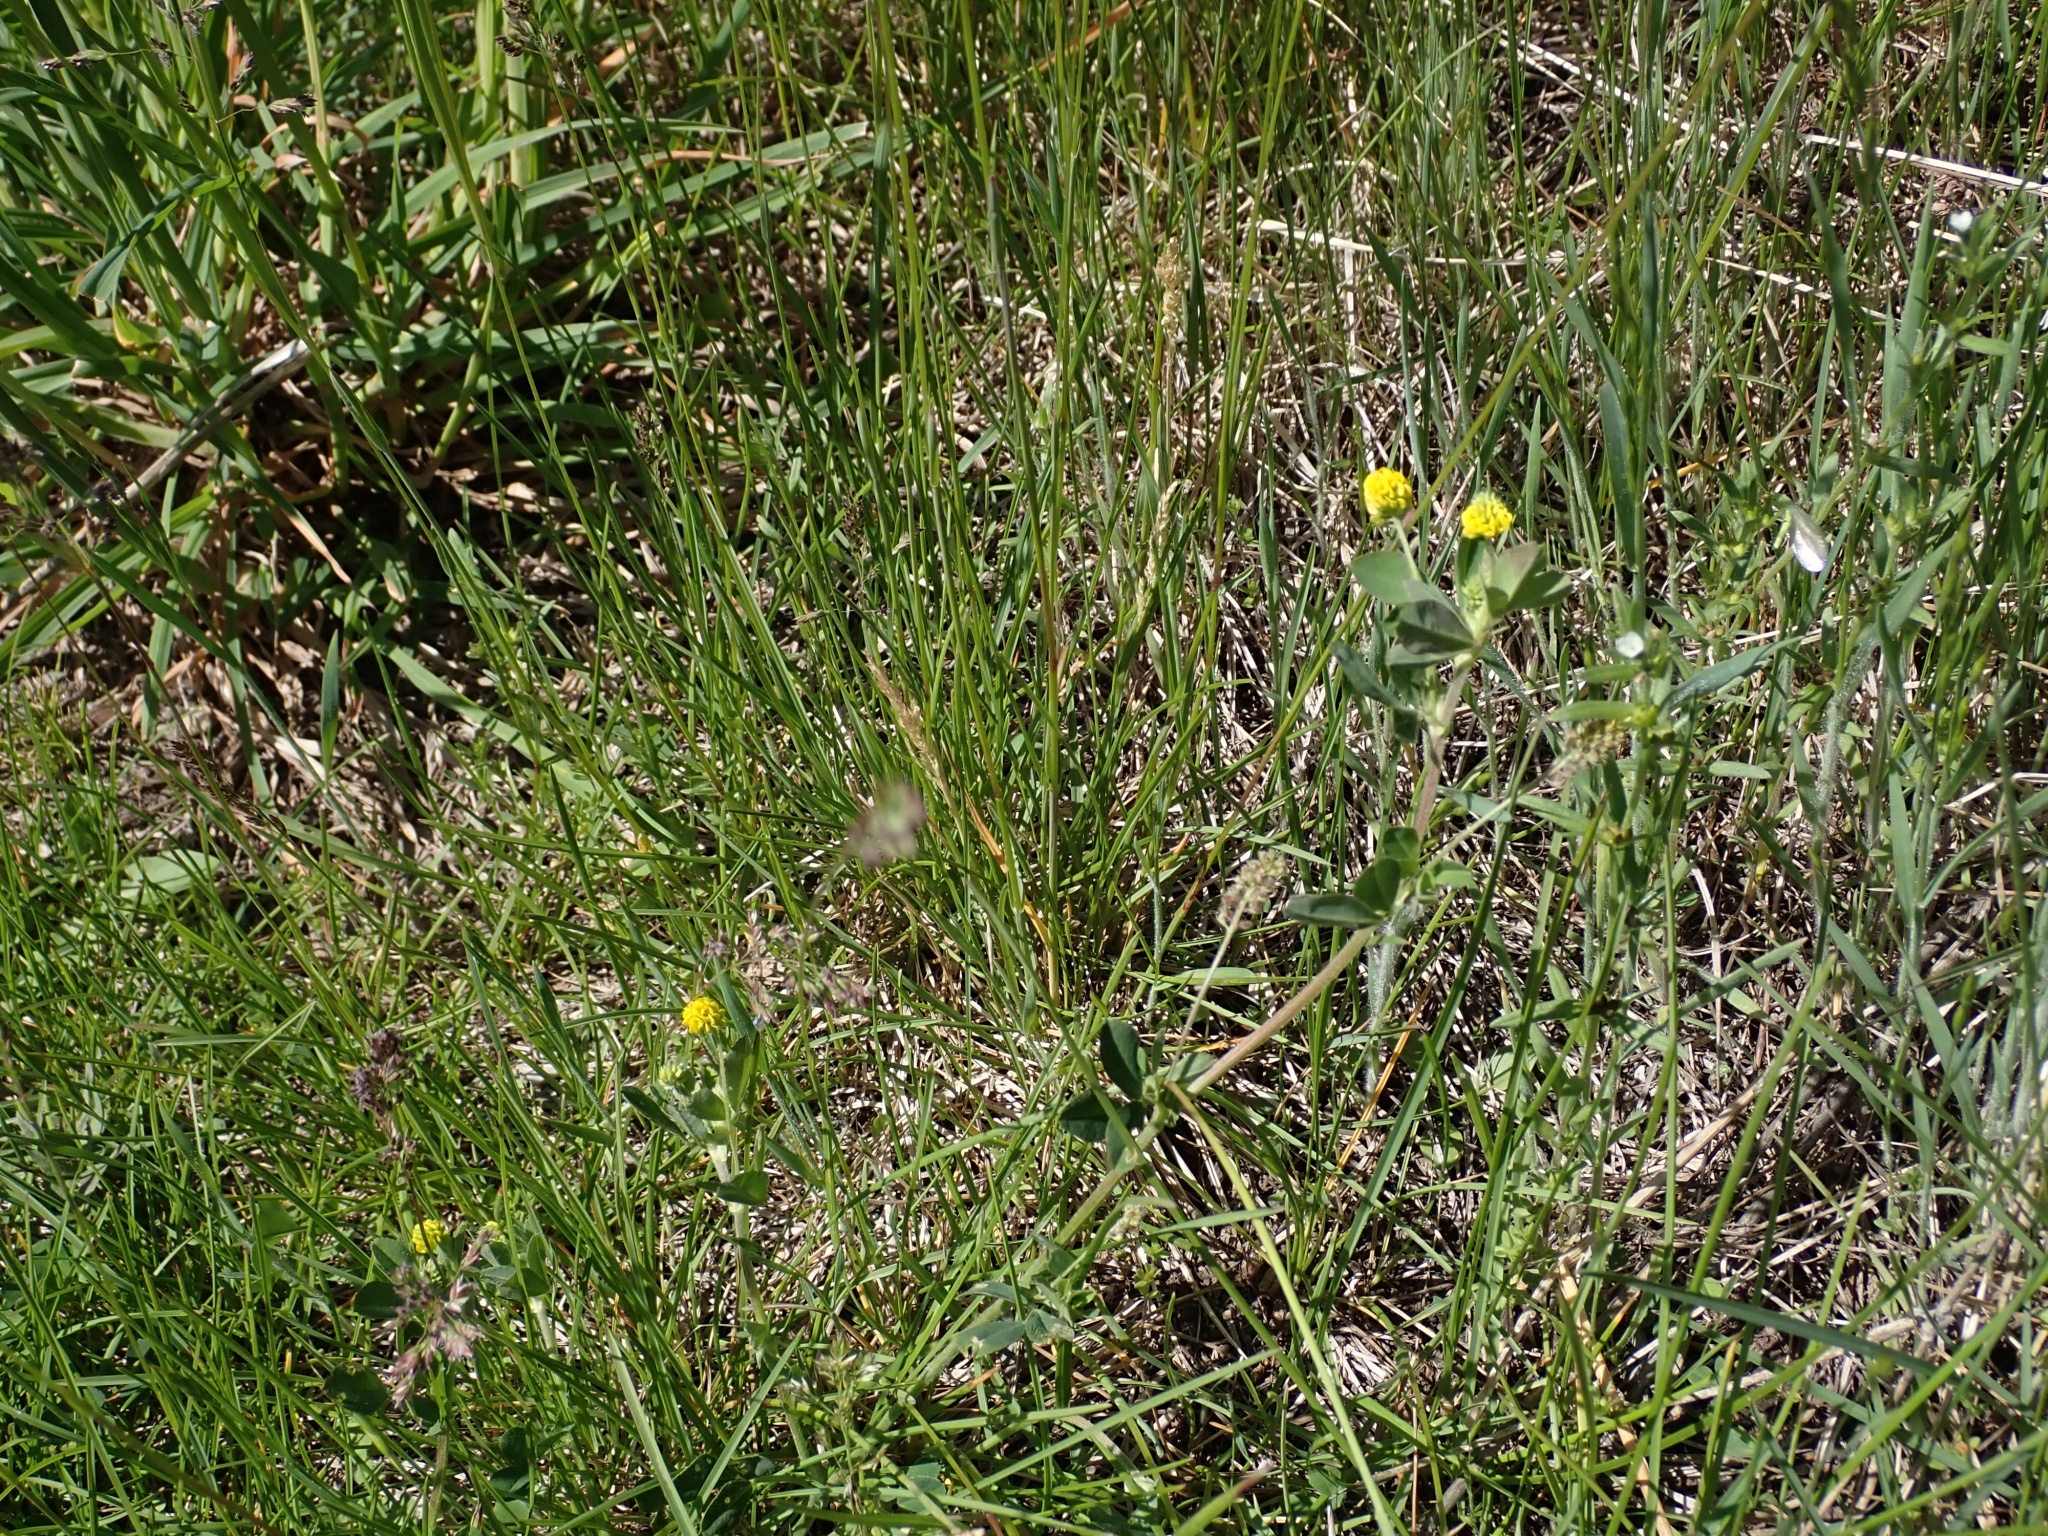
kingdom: Plantae
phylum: Tracheophyta
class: Magnoliopsida
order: Fabales
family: Fabaceae
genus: Medicago
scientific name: Medicago lupulina
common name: Black medick
